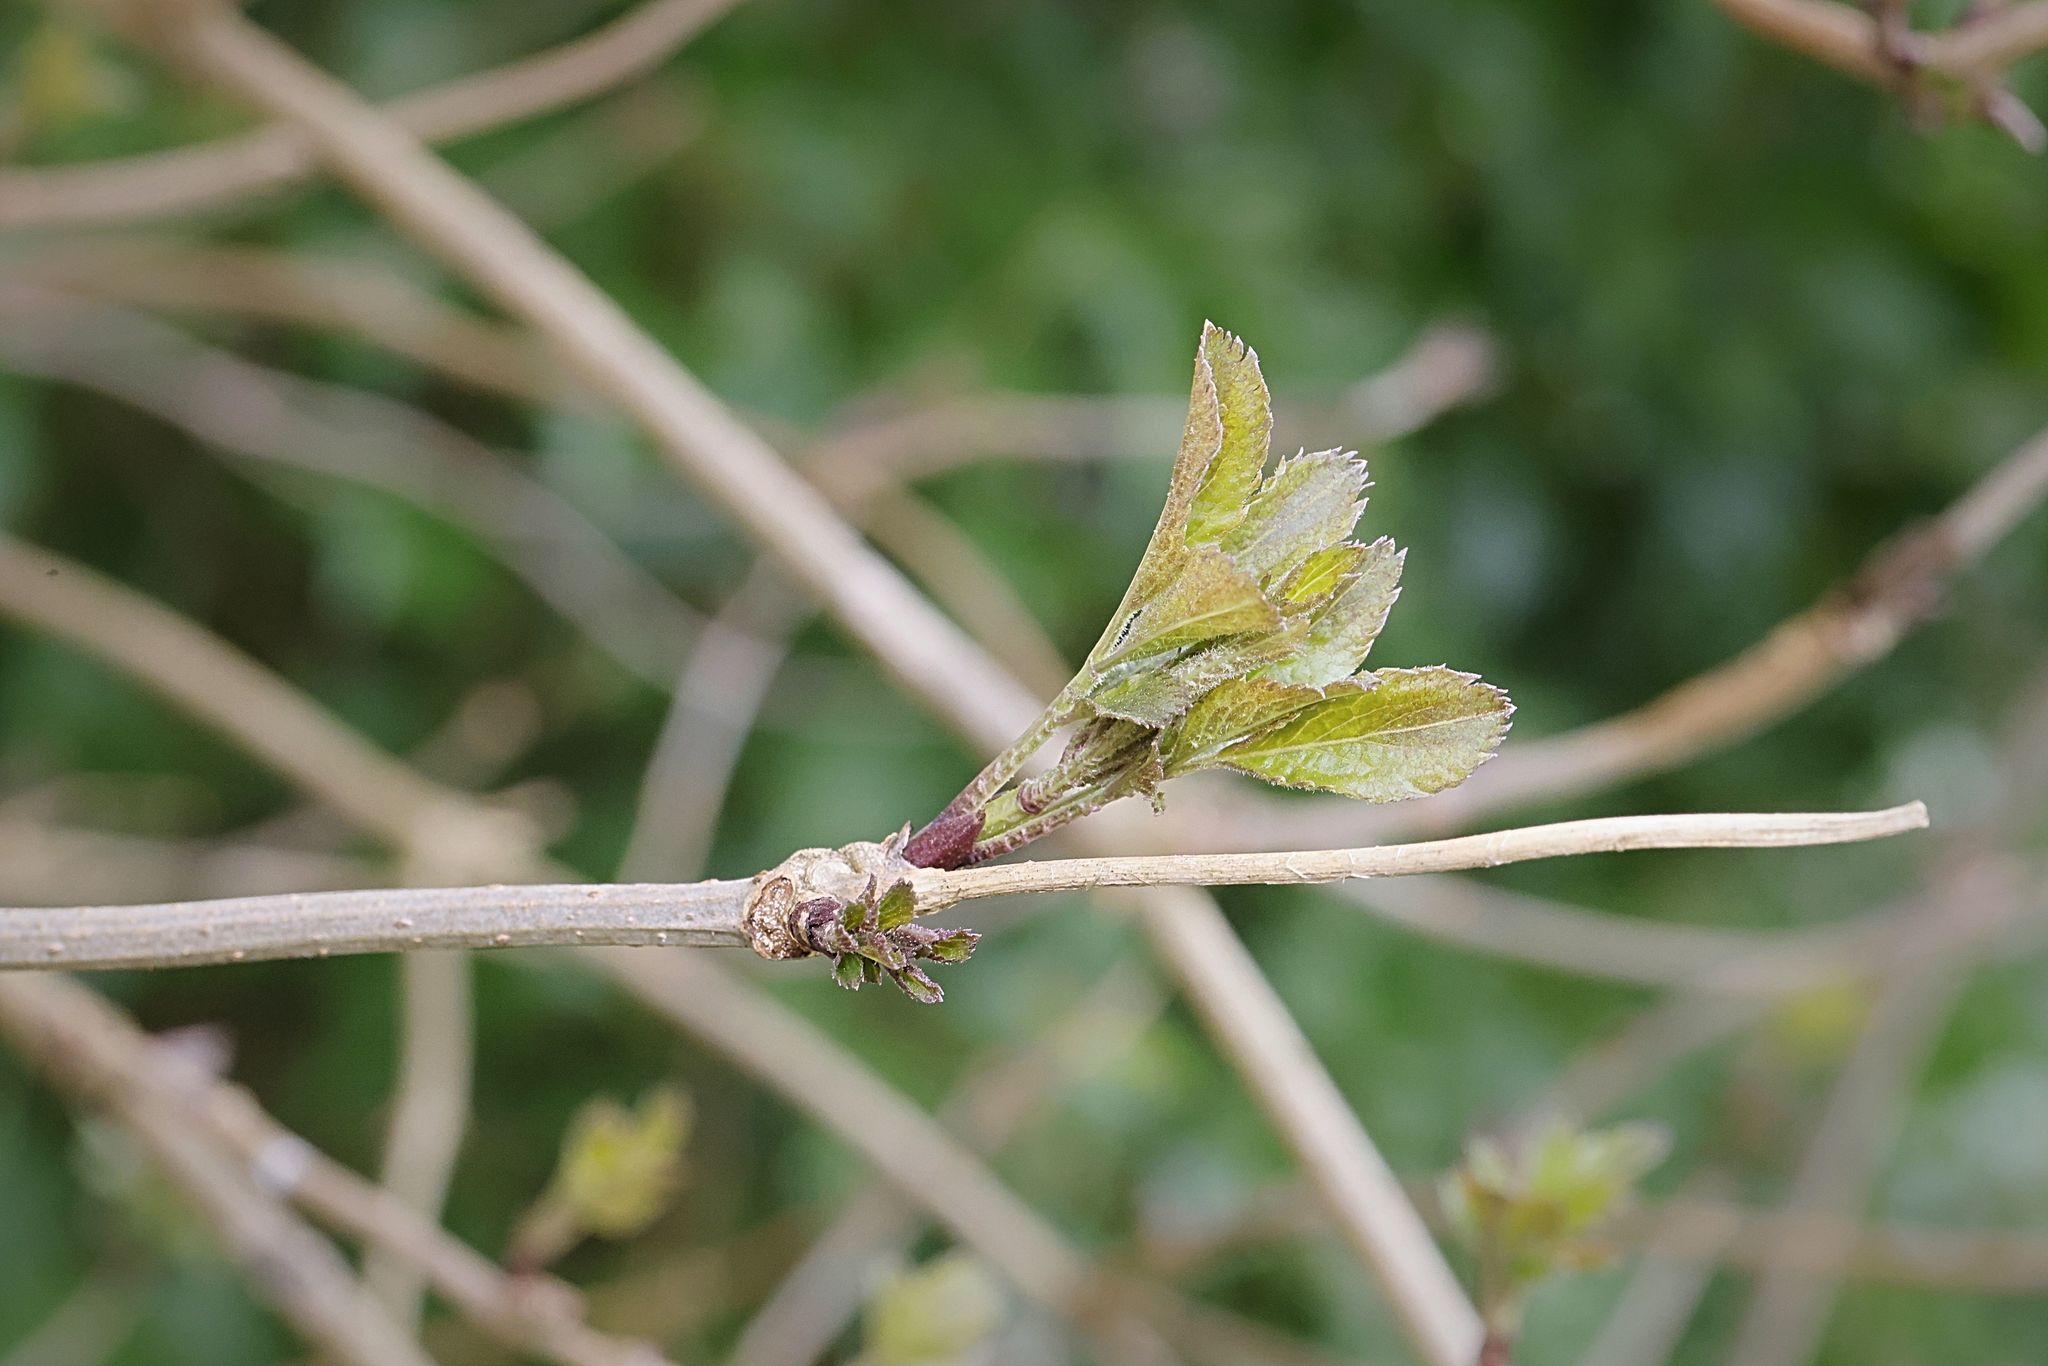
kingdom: Plantae
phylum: Tracheophyta
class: Magnoliopsida
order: Dipsacales
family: Viburnaceae
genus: Sambucus
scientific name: Sambucus nigra
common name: Elder
